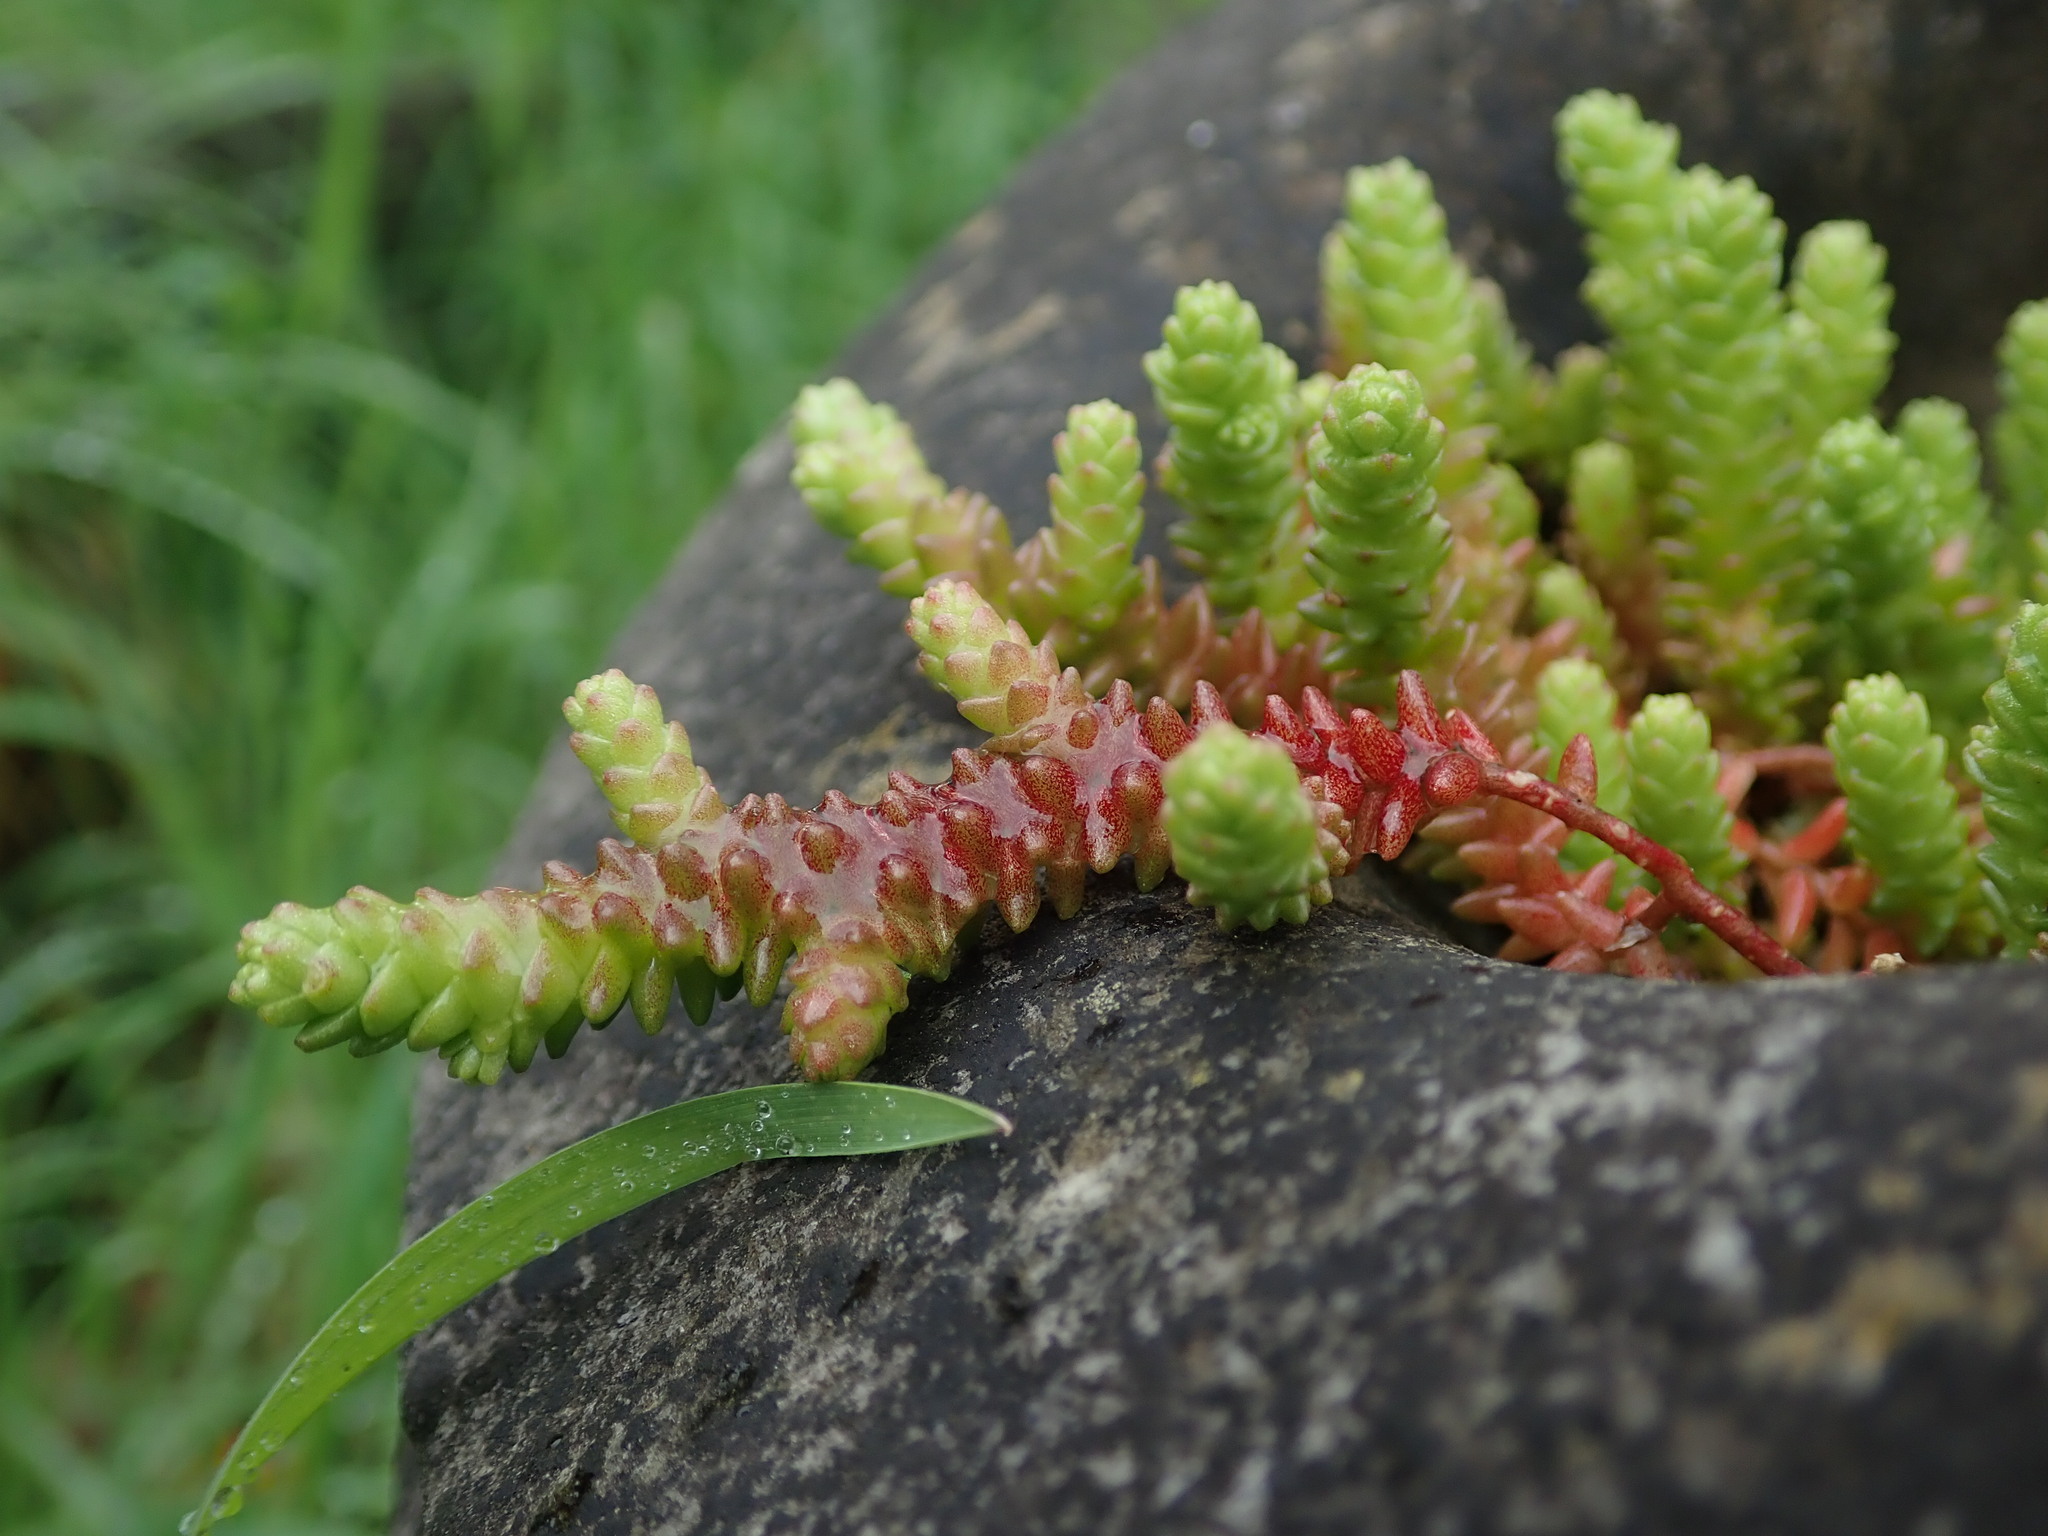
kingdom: Plantae
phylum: Tracheophyta
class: Magnoliopsida
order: Saxifragales
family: Crassulaceae
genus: Sedum
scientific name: Sedum acre
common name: Biting stonecrop
